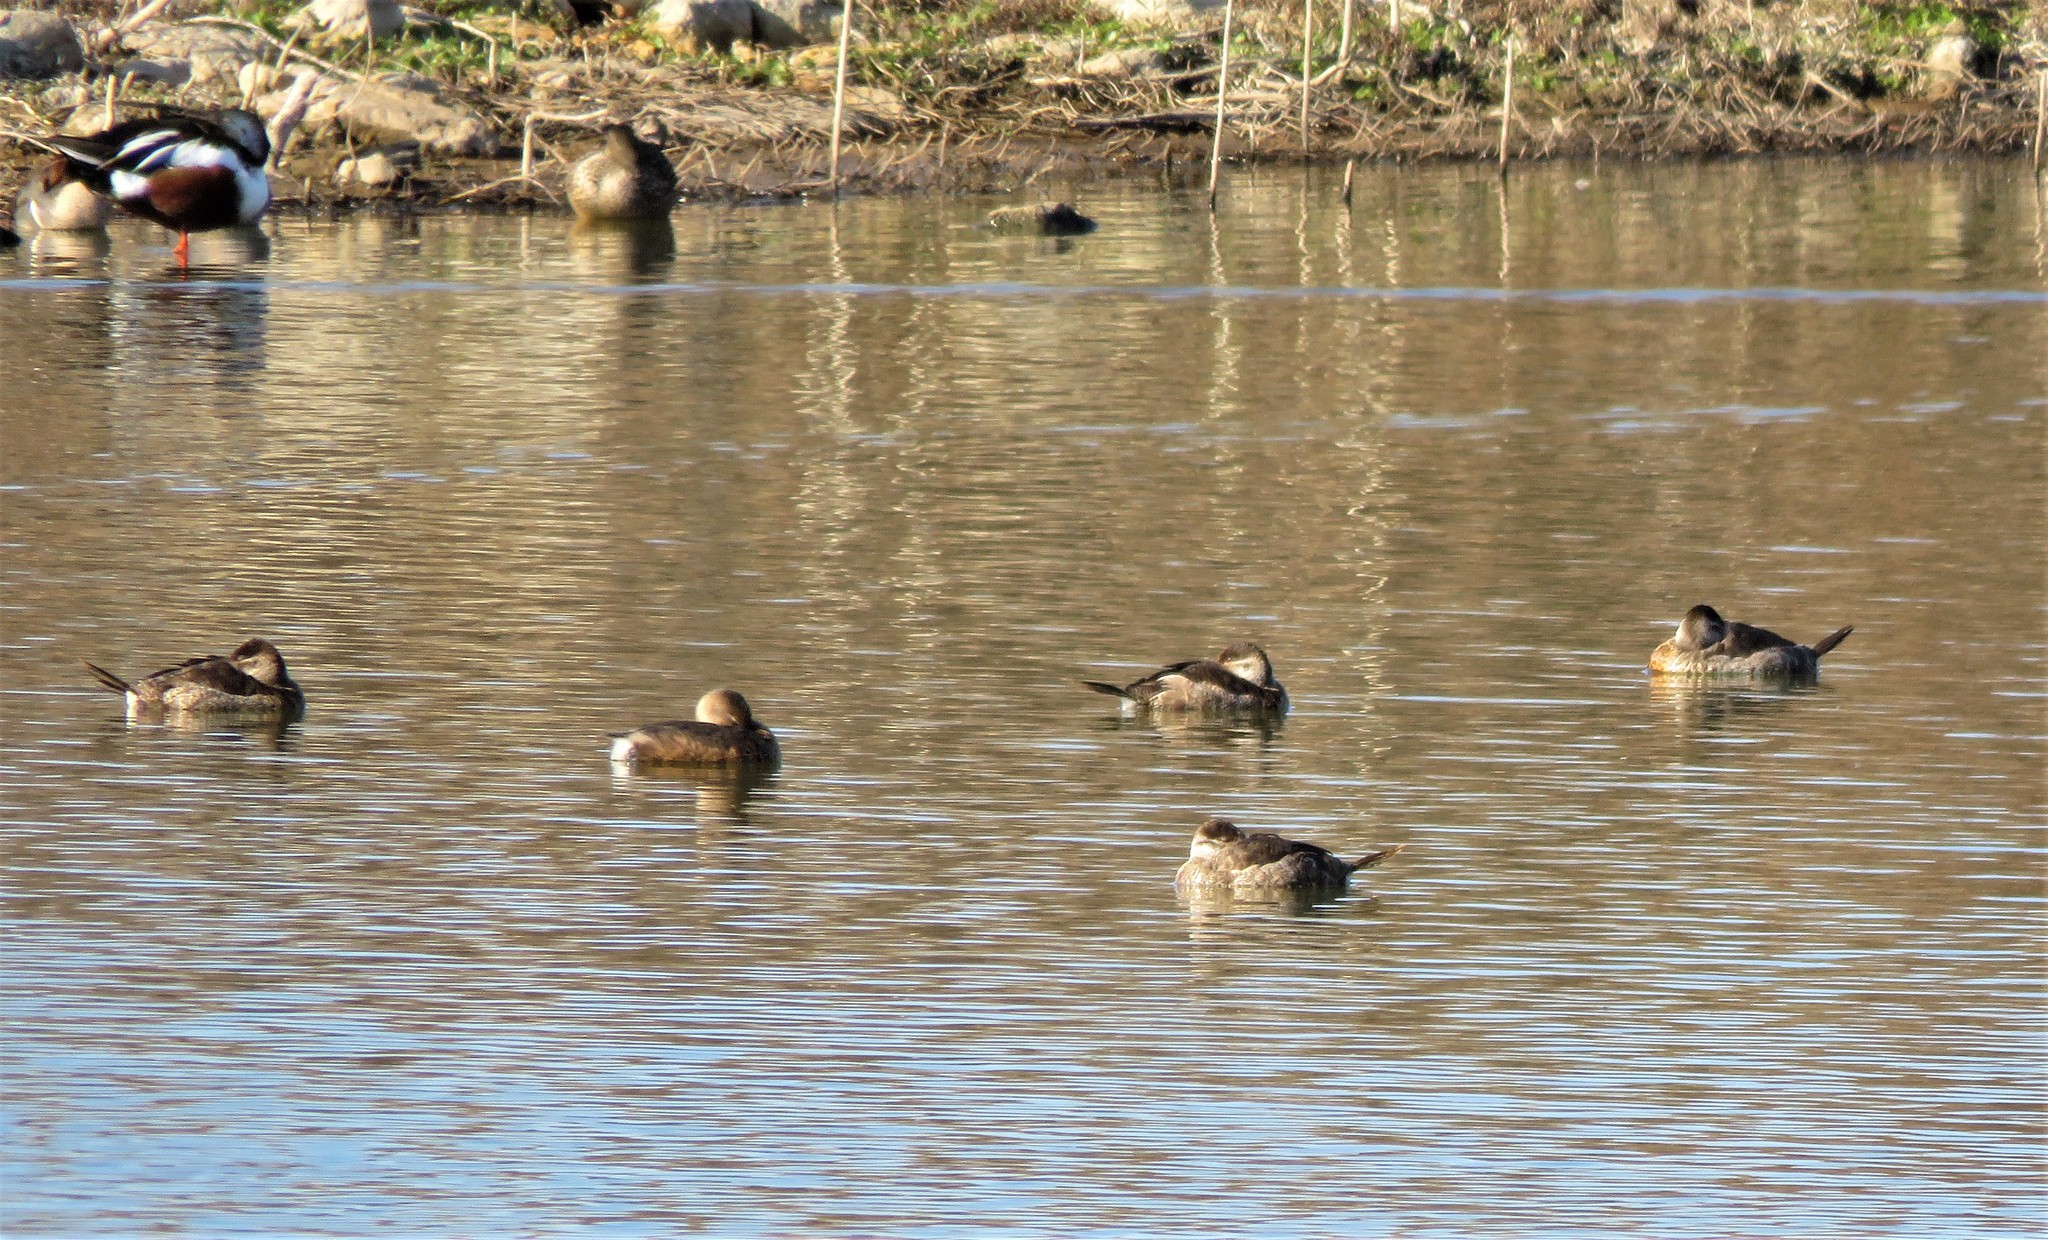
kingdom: Animalia
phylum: Chordata
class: Aves
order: Anseriformes
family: Anatidae
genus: Oxyura
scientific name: Oxyura jamaicensis
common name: Ruddy duck
